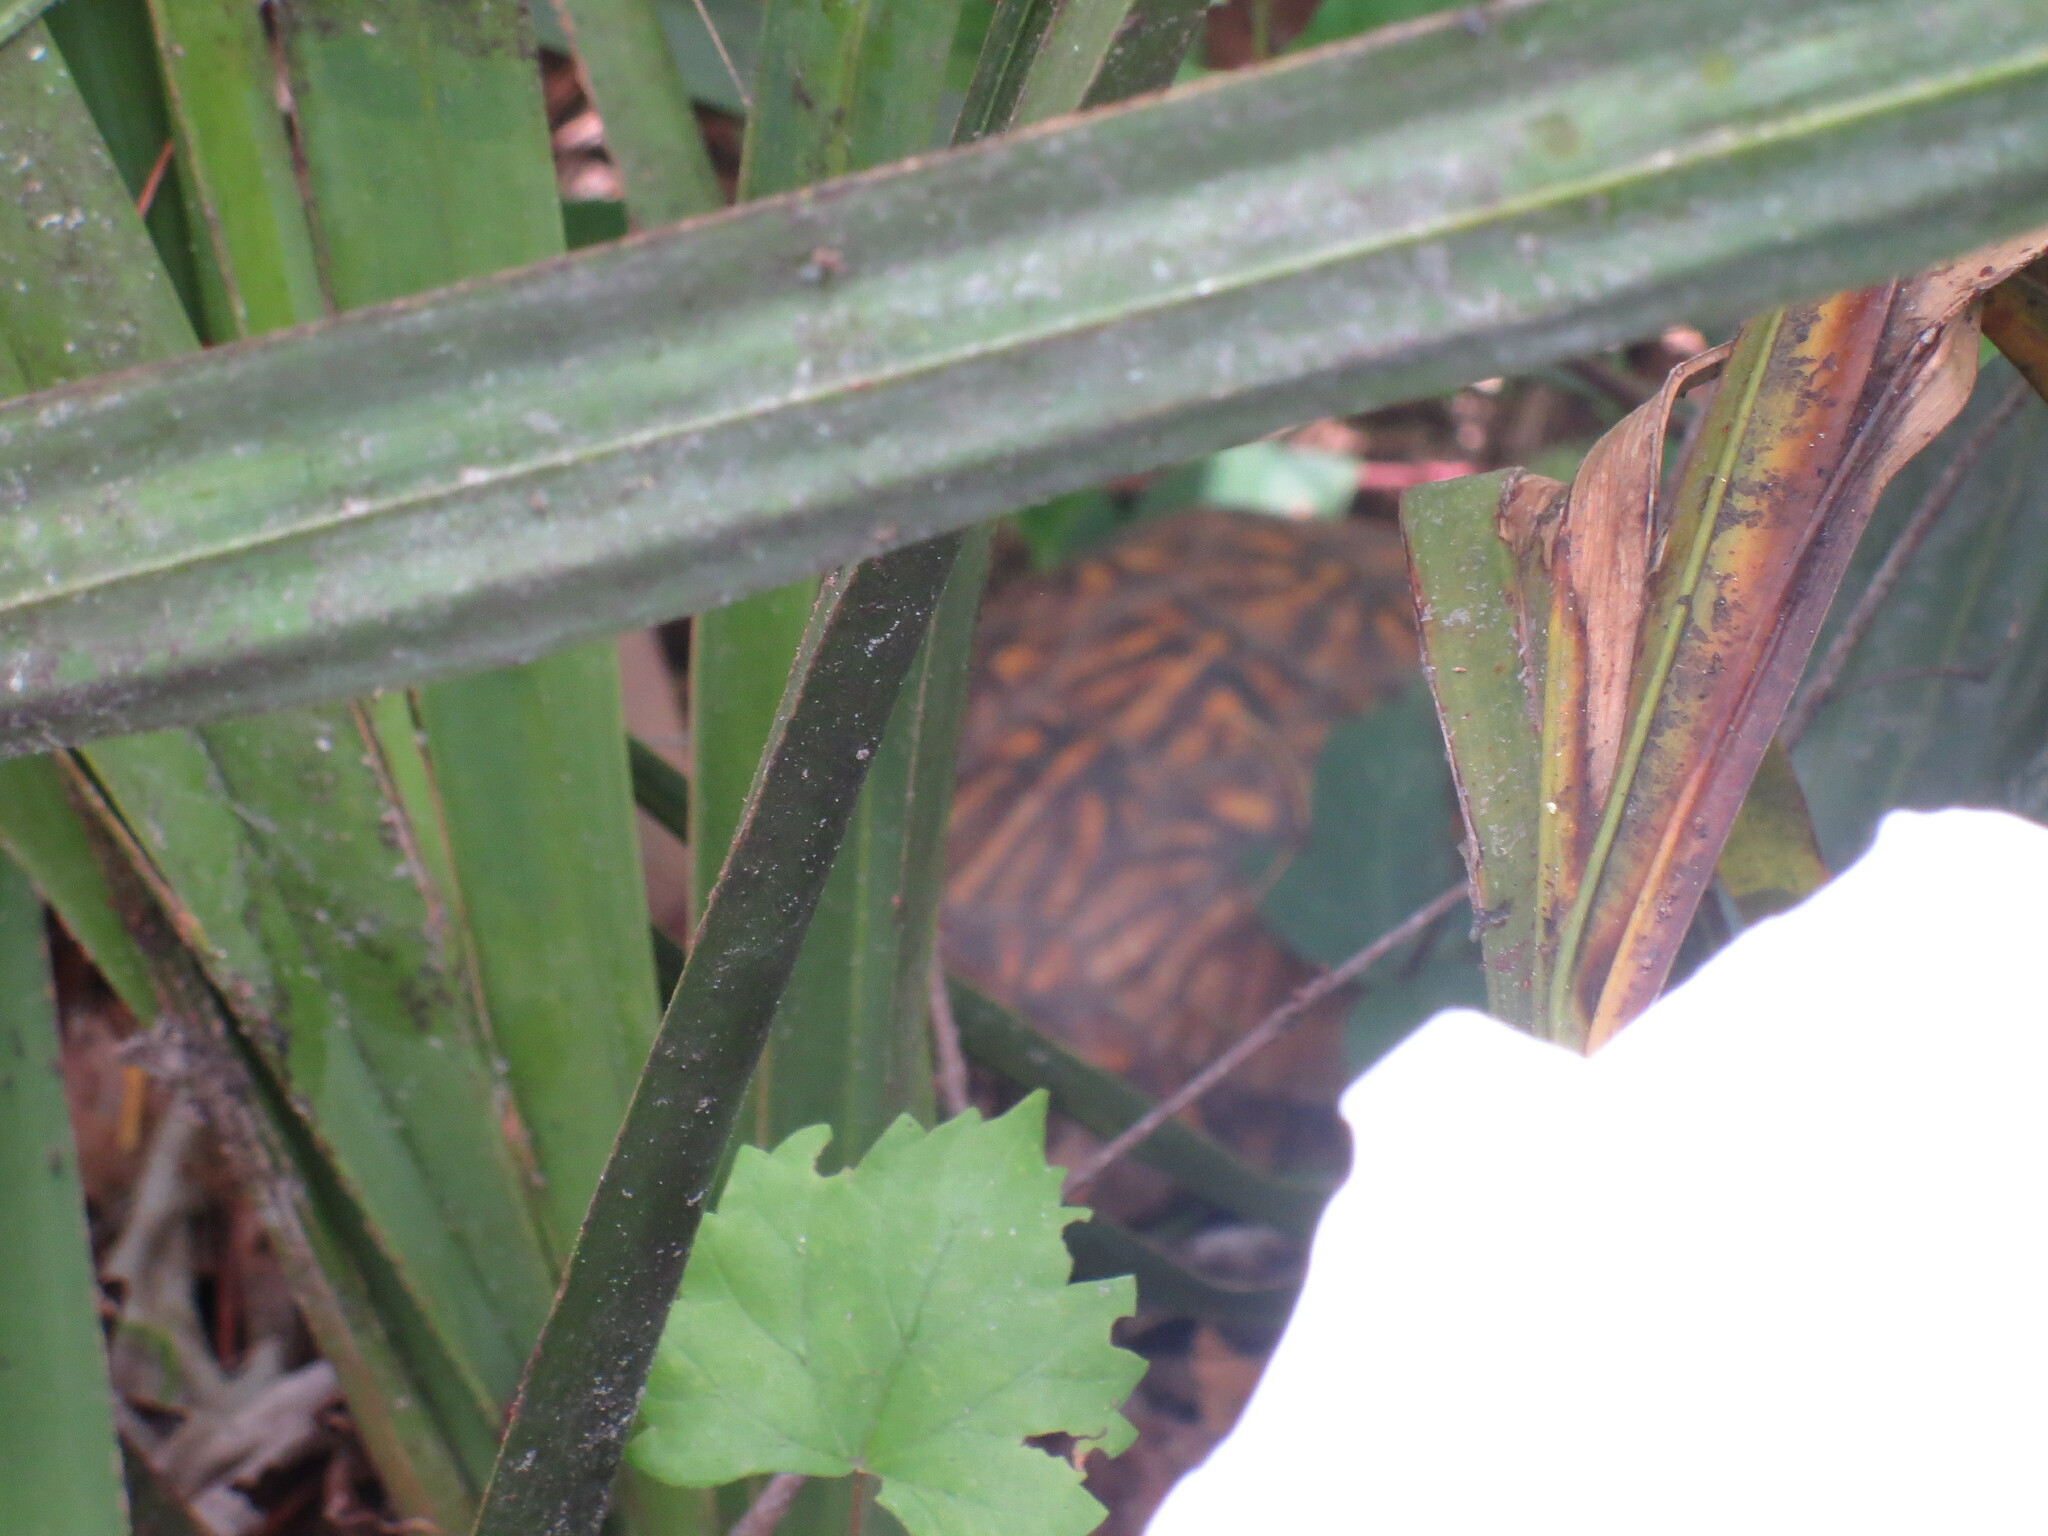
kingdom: Animalia
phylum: Chordata
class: Testudines
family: Emydidae
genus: Terrapene
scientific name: Terrapene carolina
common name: Common box turtle
